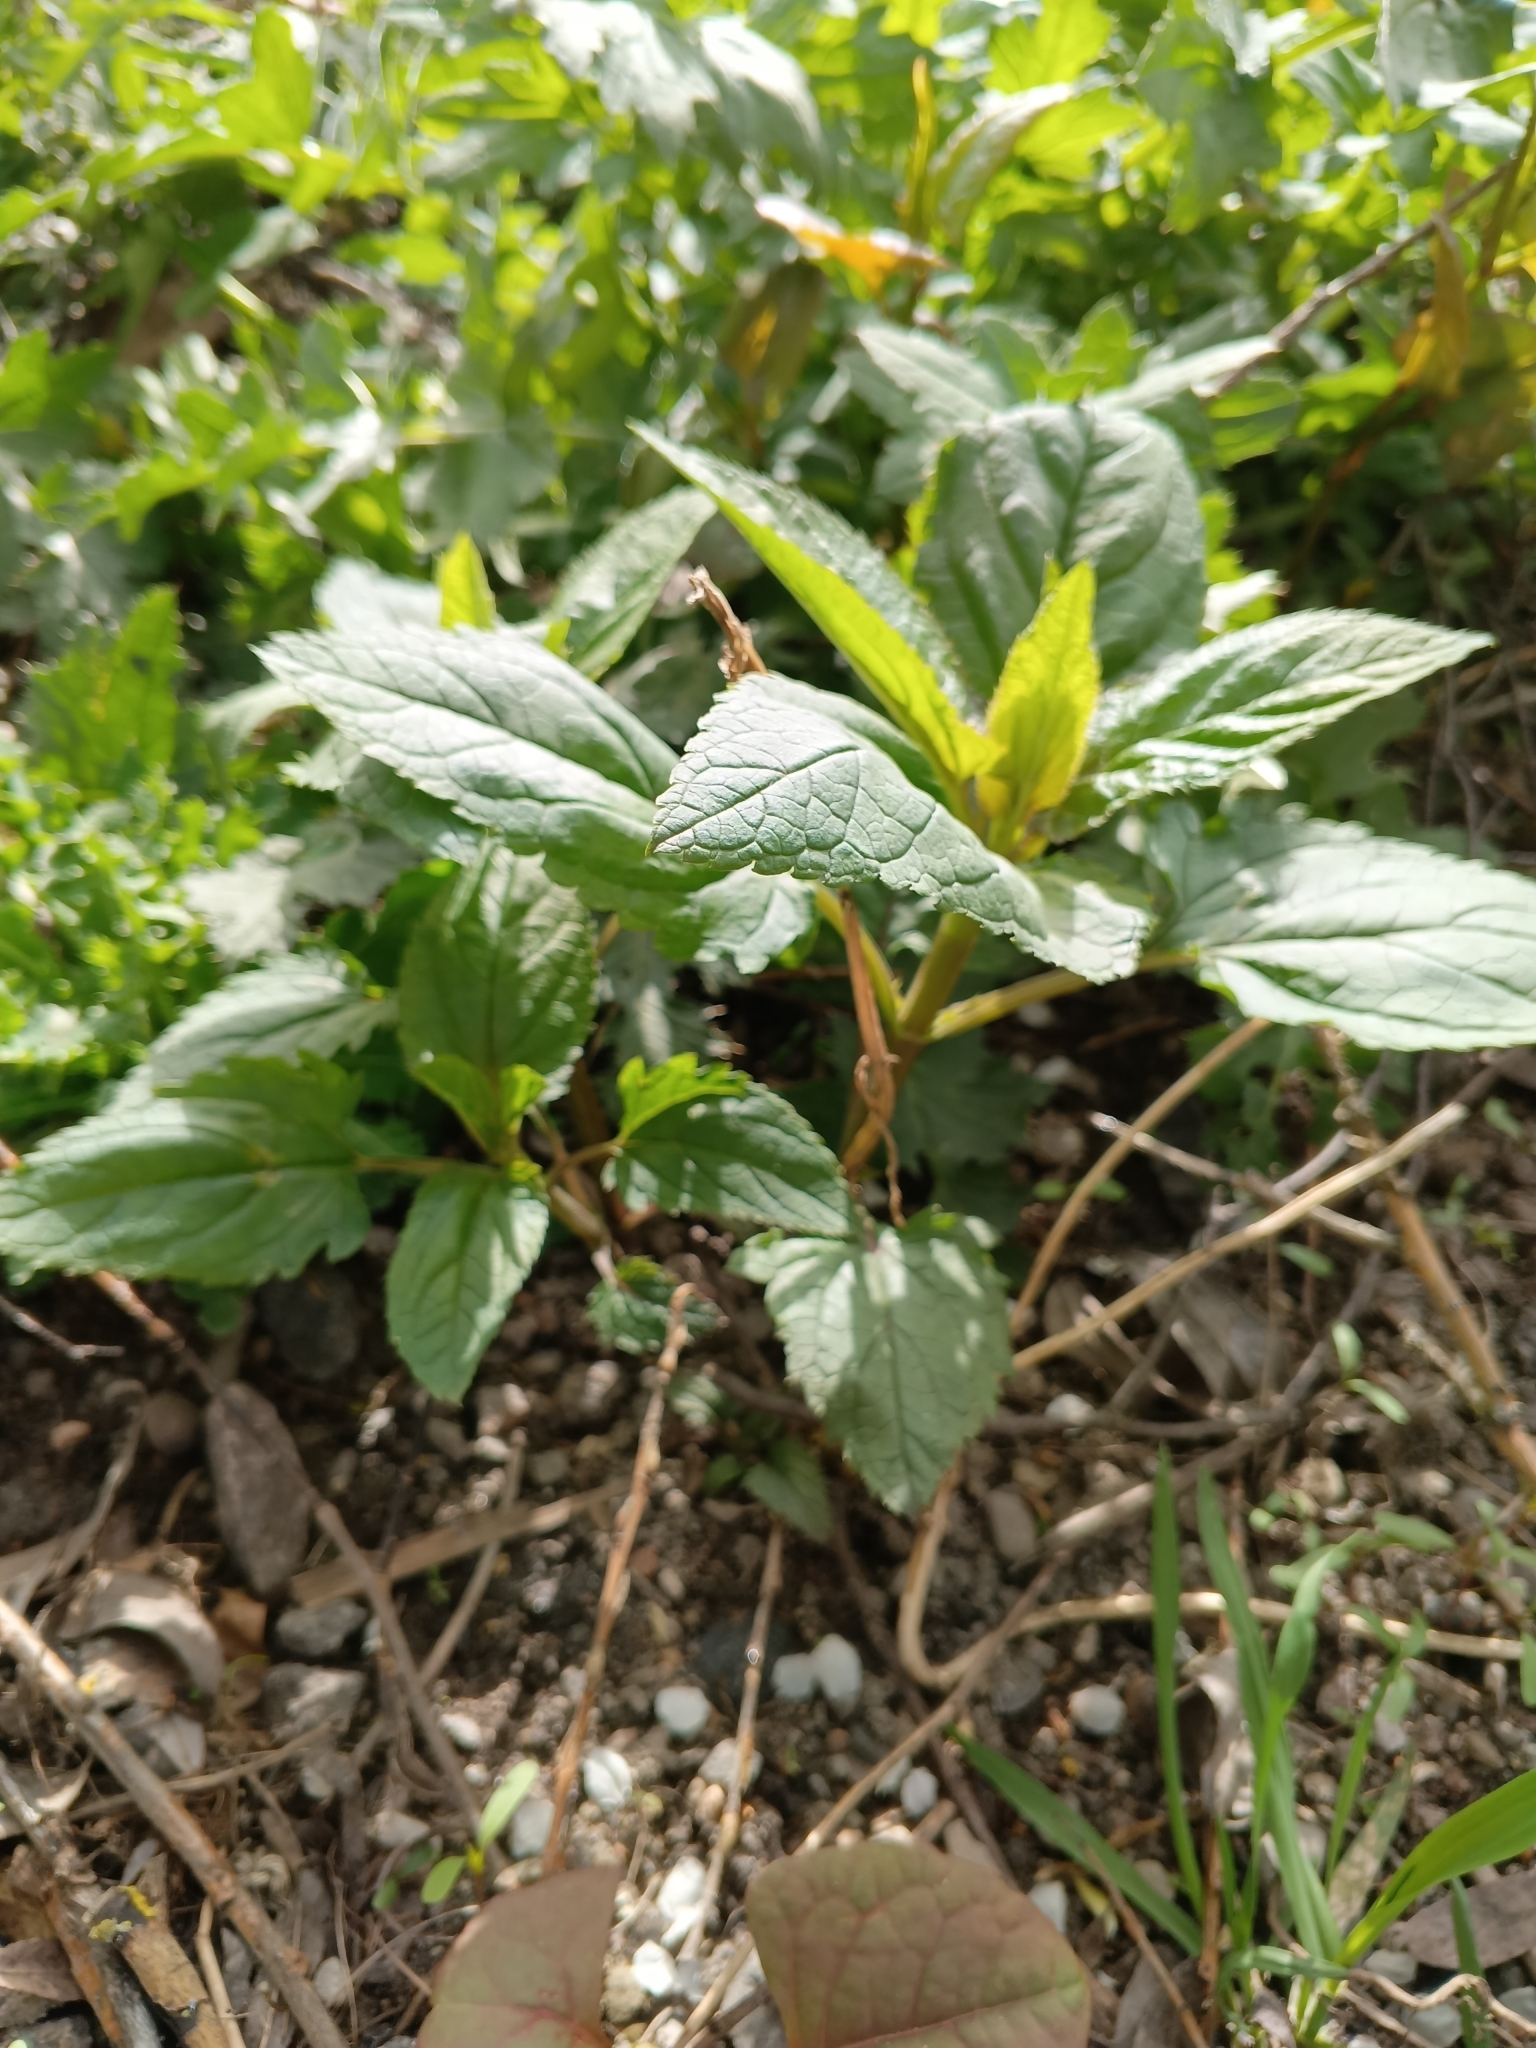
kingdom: Plantae
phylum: Tracheophyta
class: Magnoliopsida
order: Lamiales
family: Scrophulariaceae
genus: Scrophularia
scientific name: Scrophularia nodosa
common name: Common figwort
